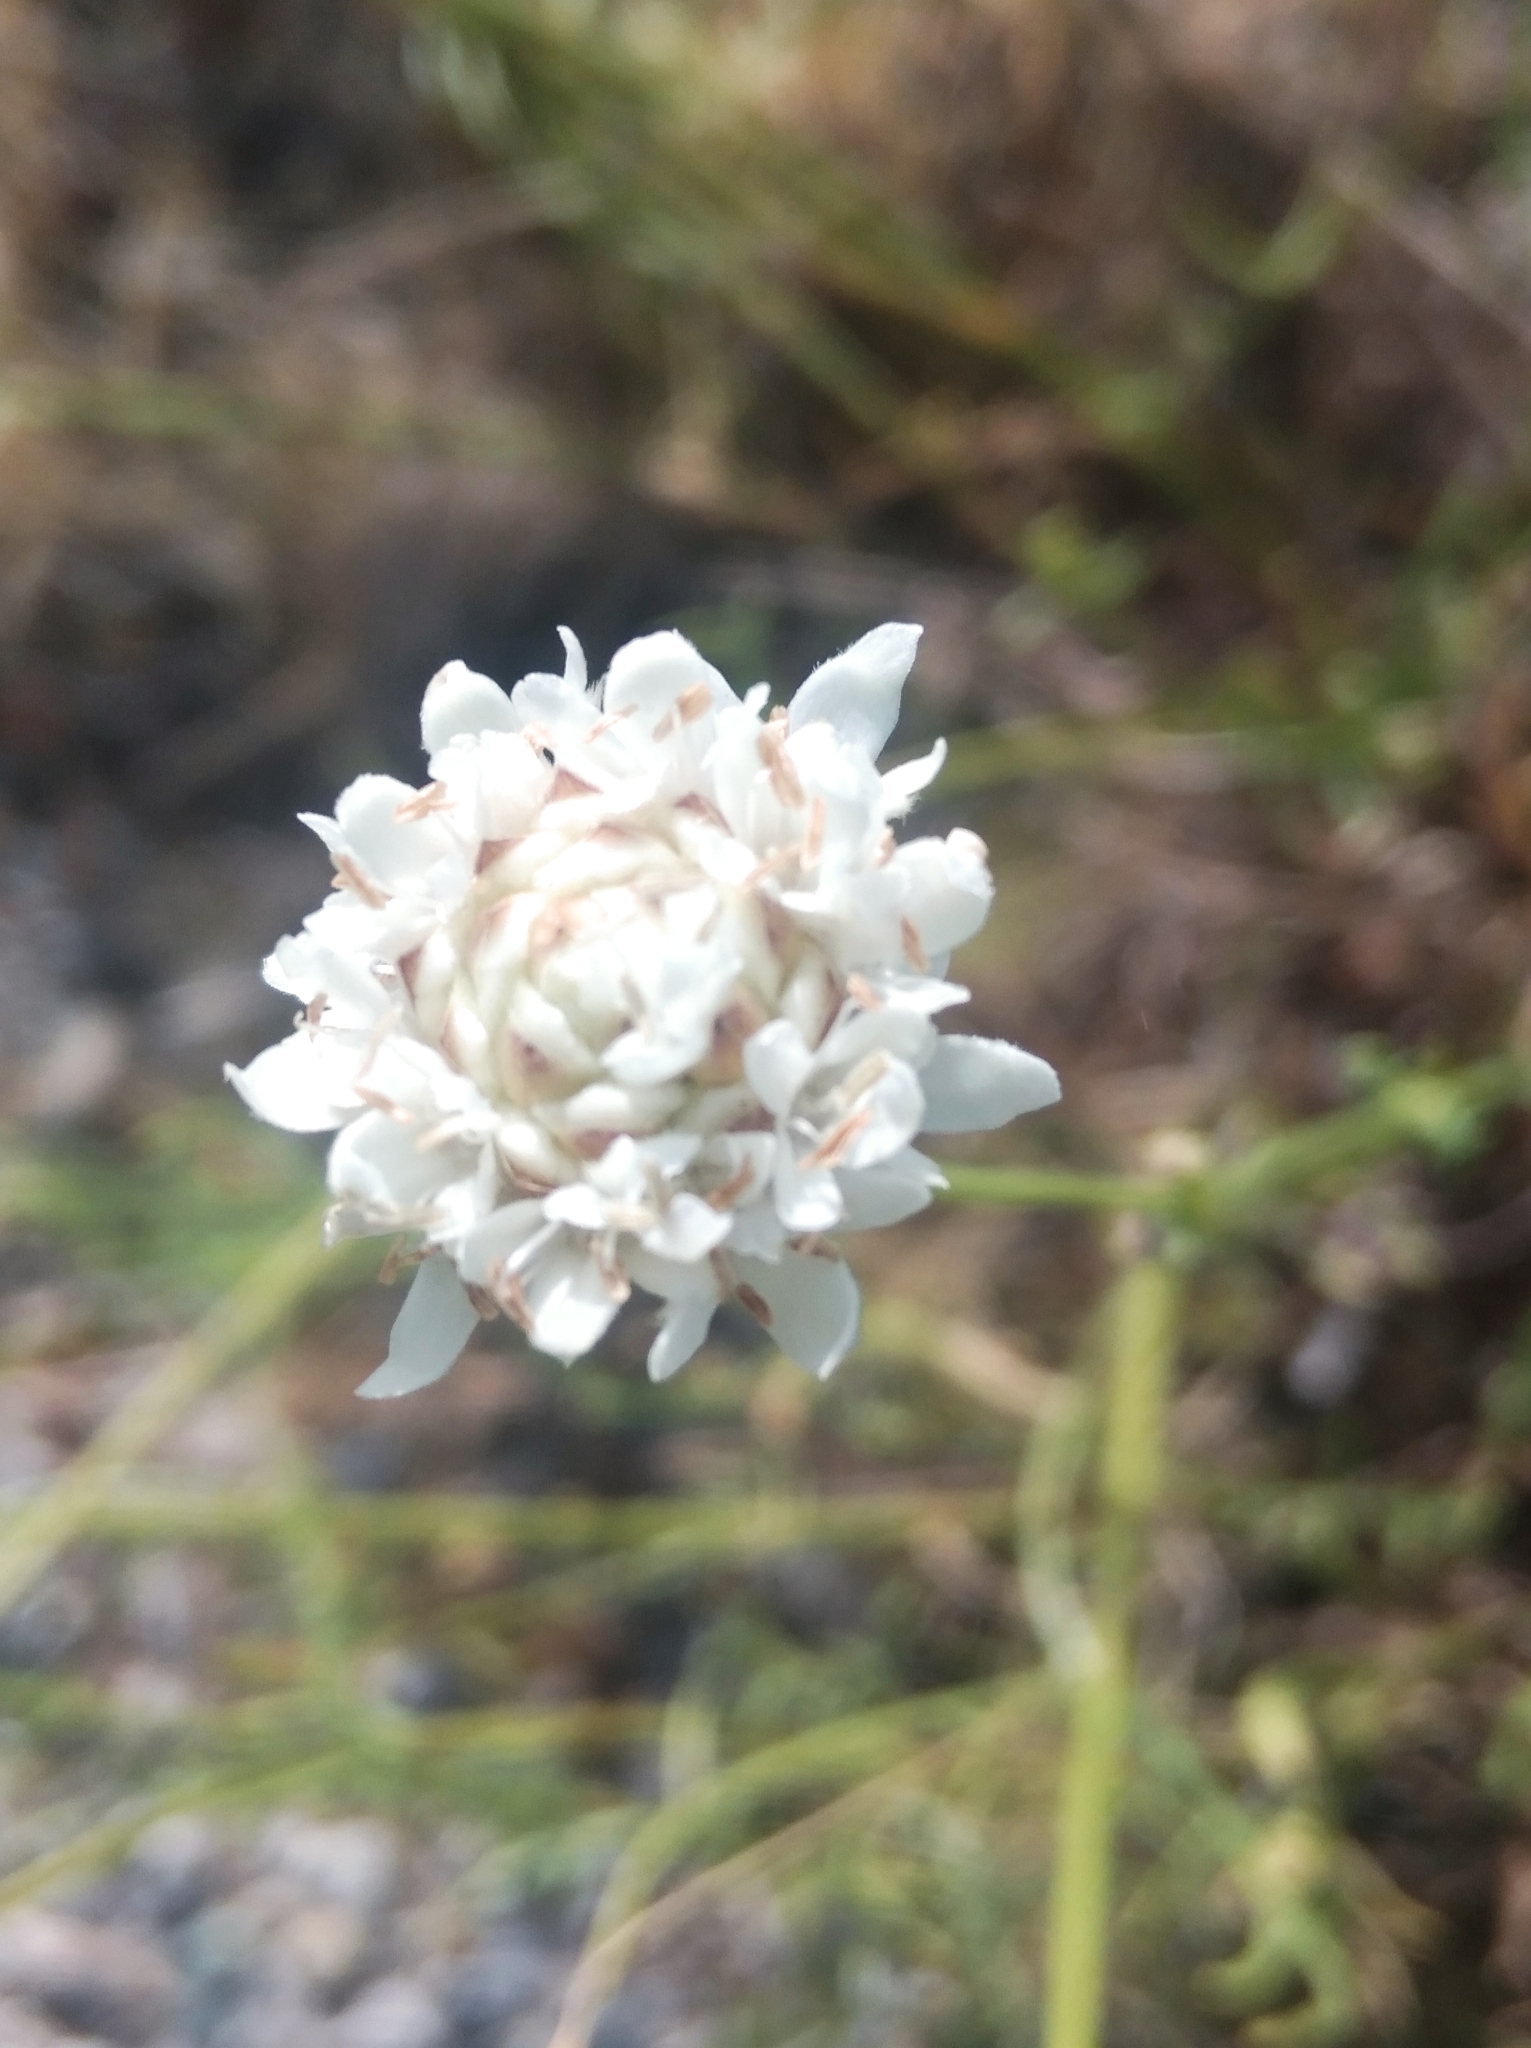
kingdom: Plantae
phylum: Tracheophyta
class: Magnoliopsida
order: Dipsacales
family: Caprifoliaceae
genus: Cephalaria
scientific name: Cephalaria leucantha
